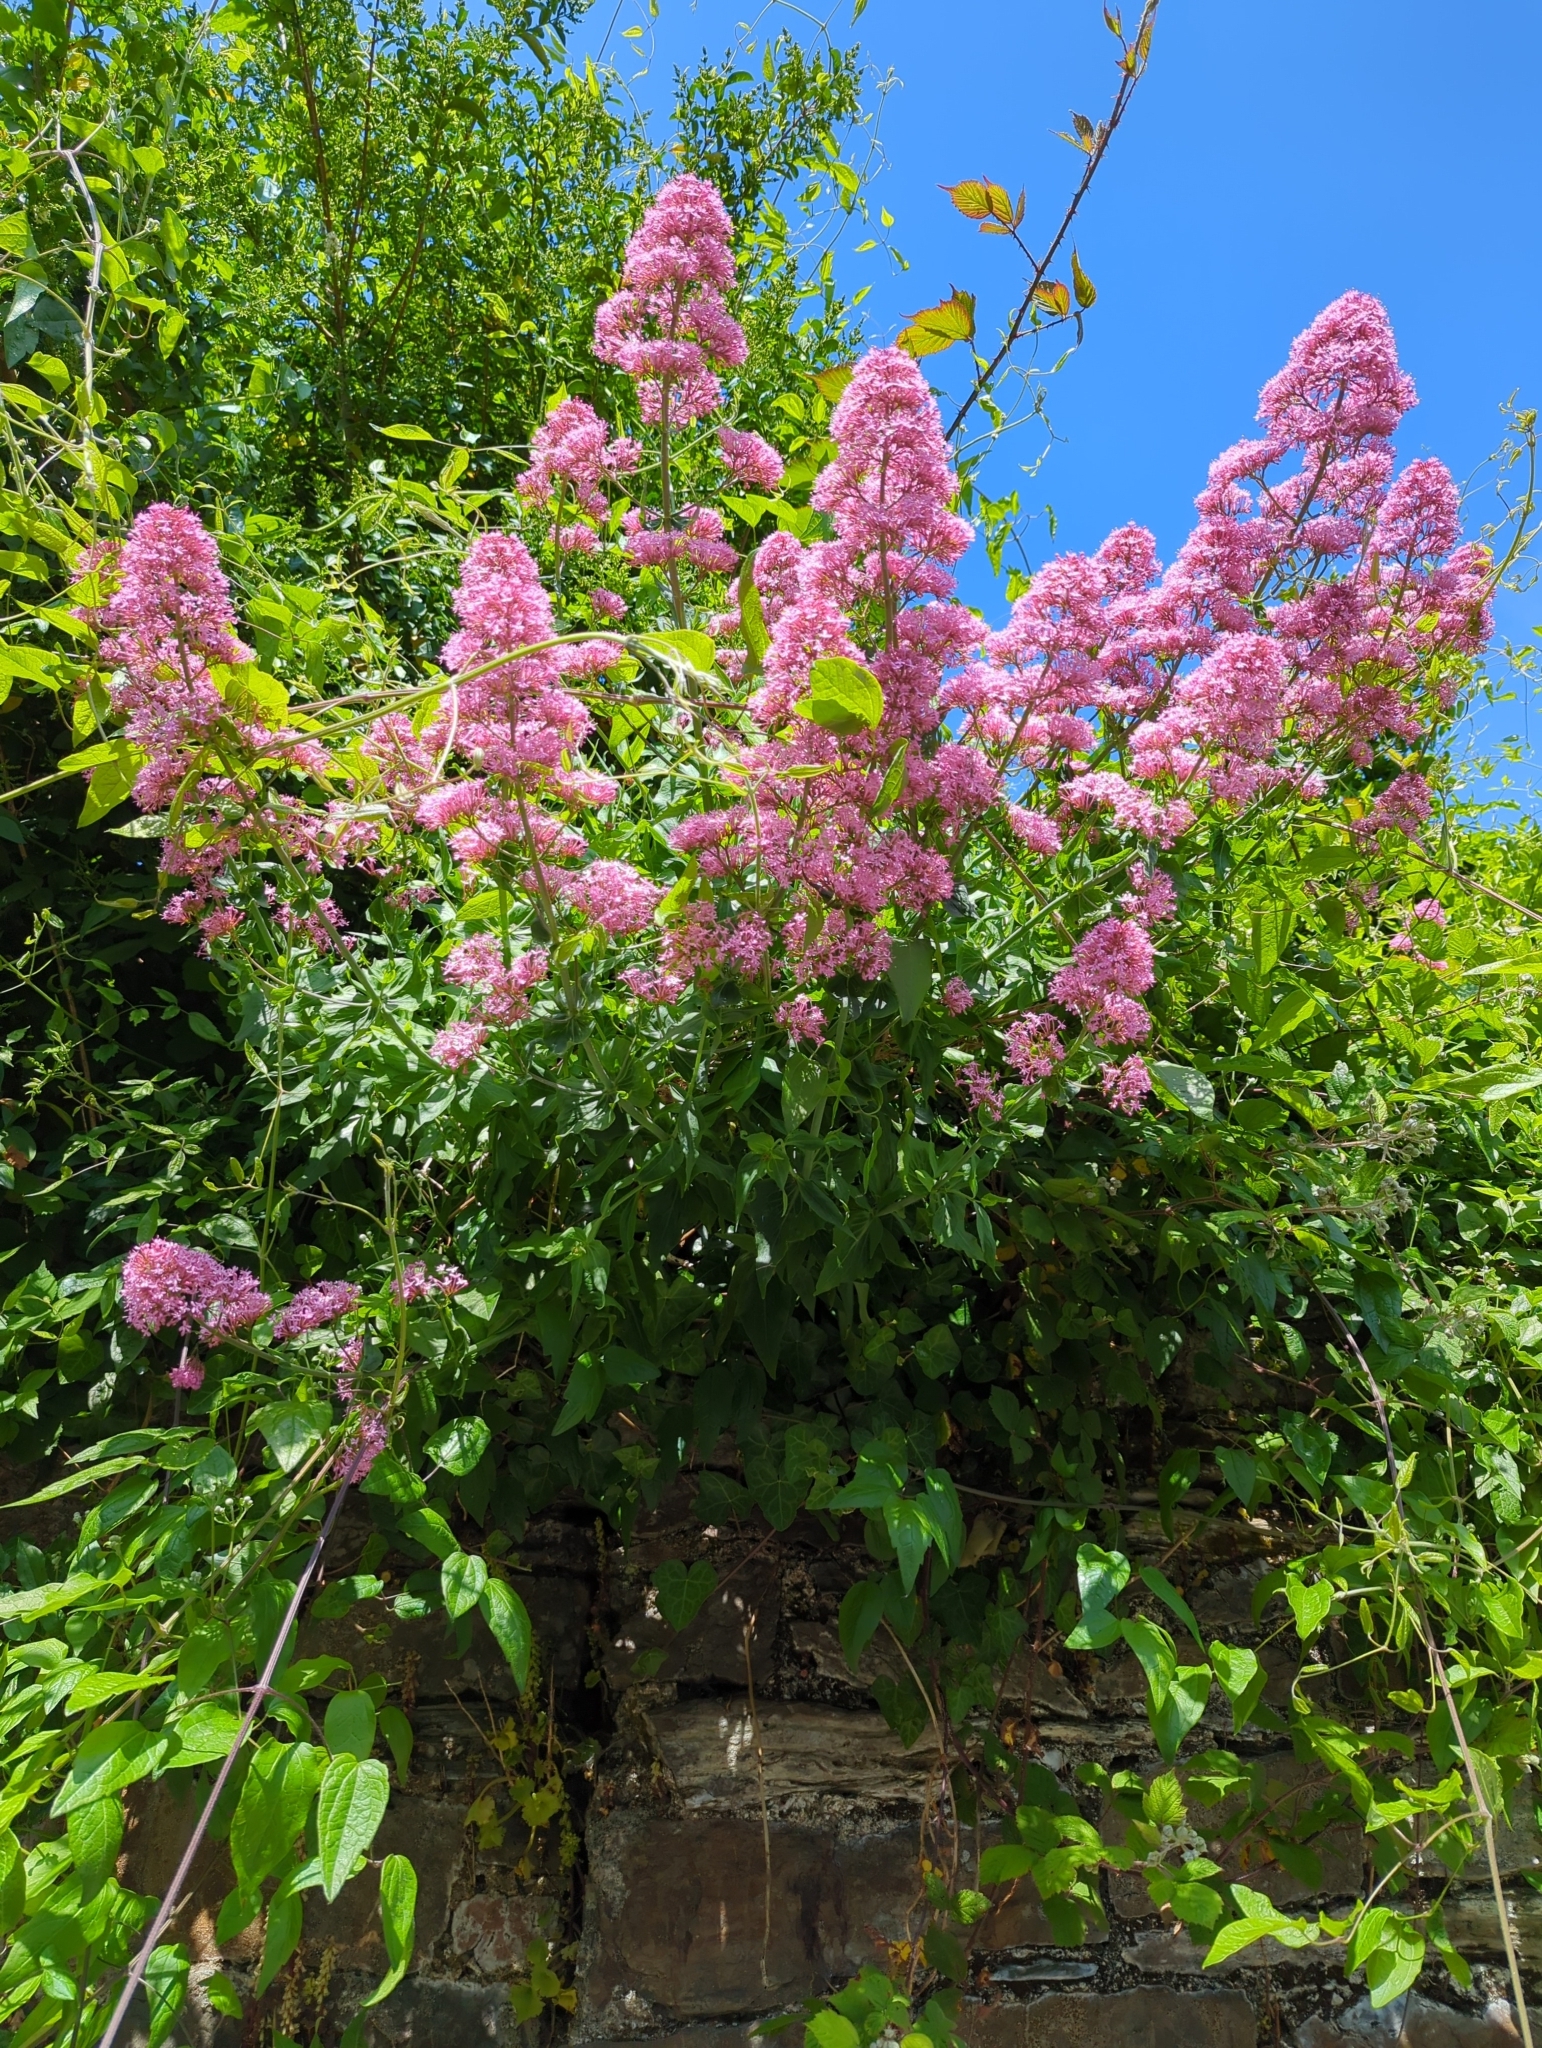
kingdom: Plantae
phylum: Tracheophyta
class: Magnoliopsida
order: Dipsacales
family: Caprifoliaceae
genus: Centranthus
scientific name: Centranthus ruber
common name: Red valerian
